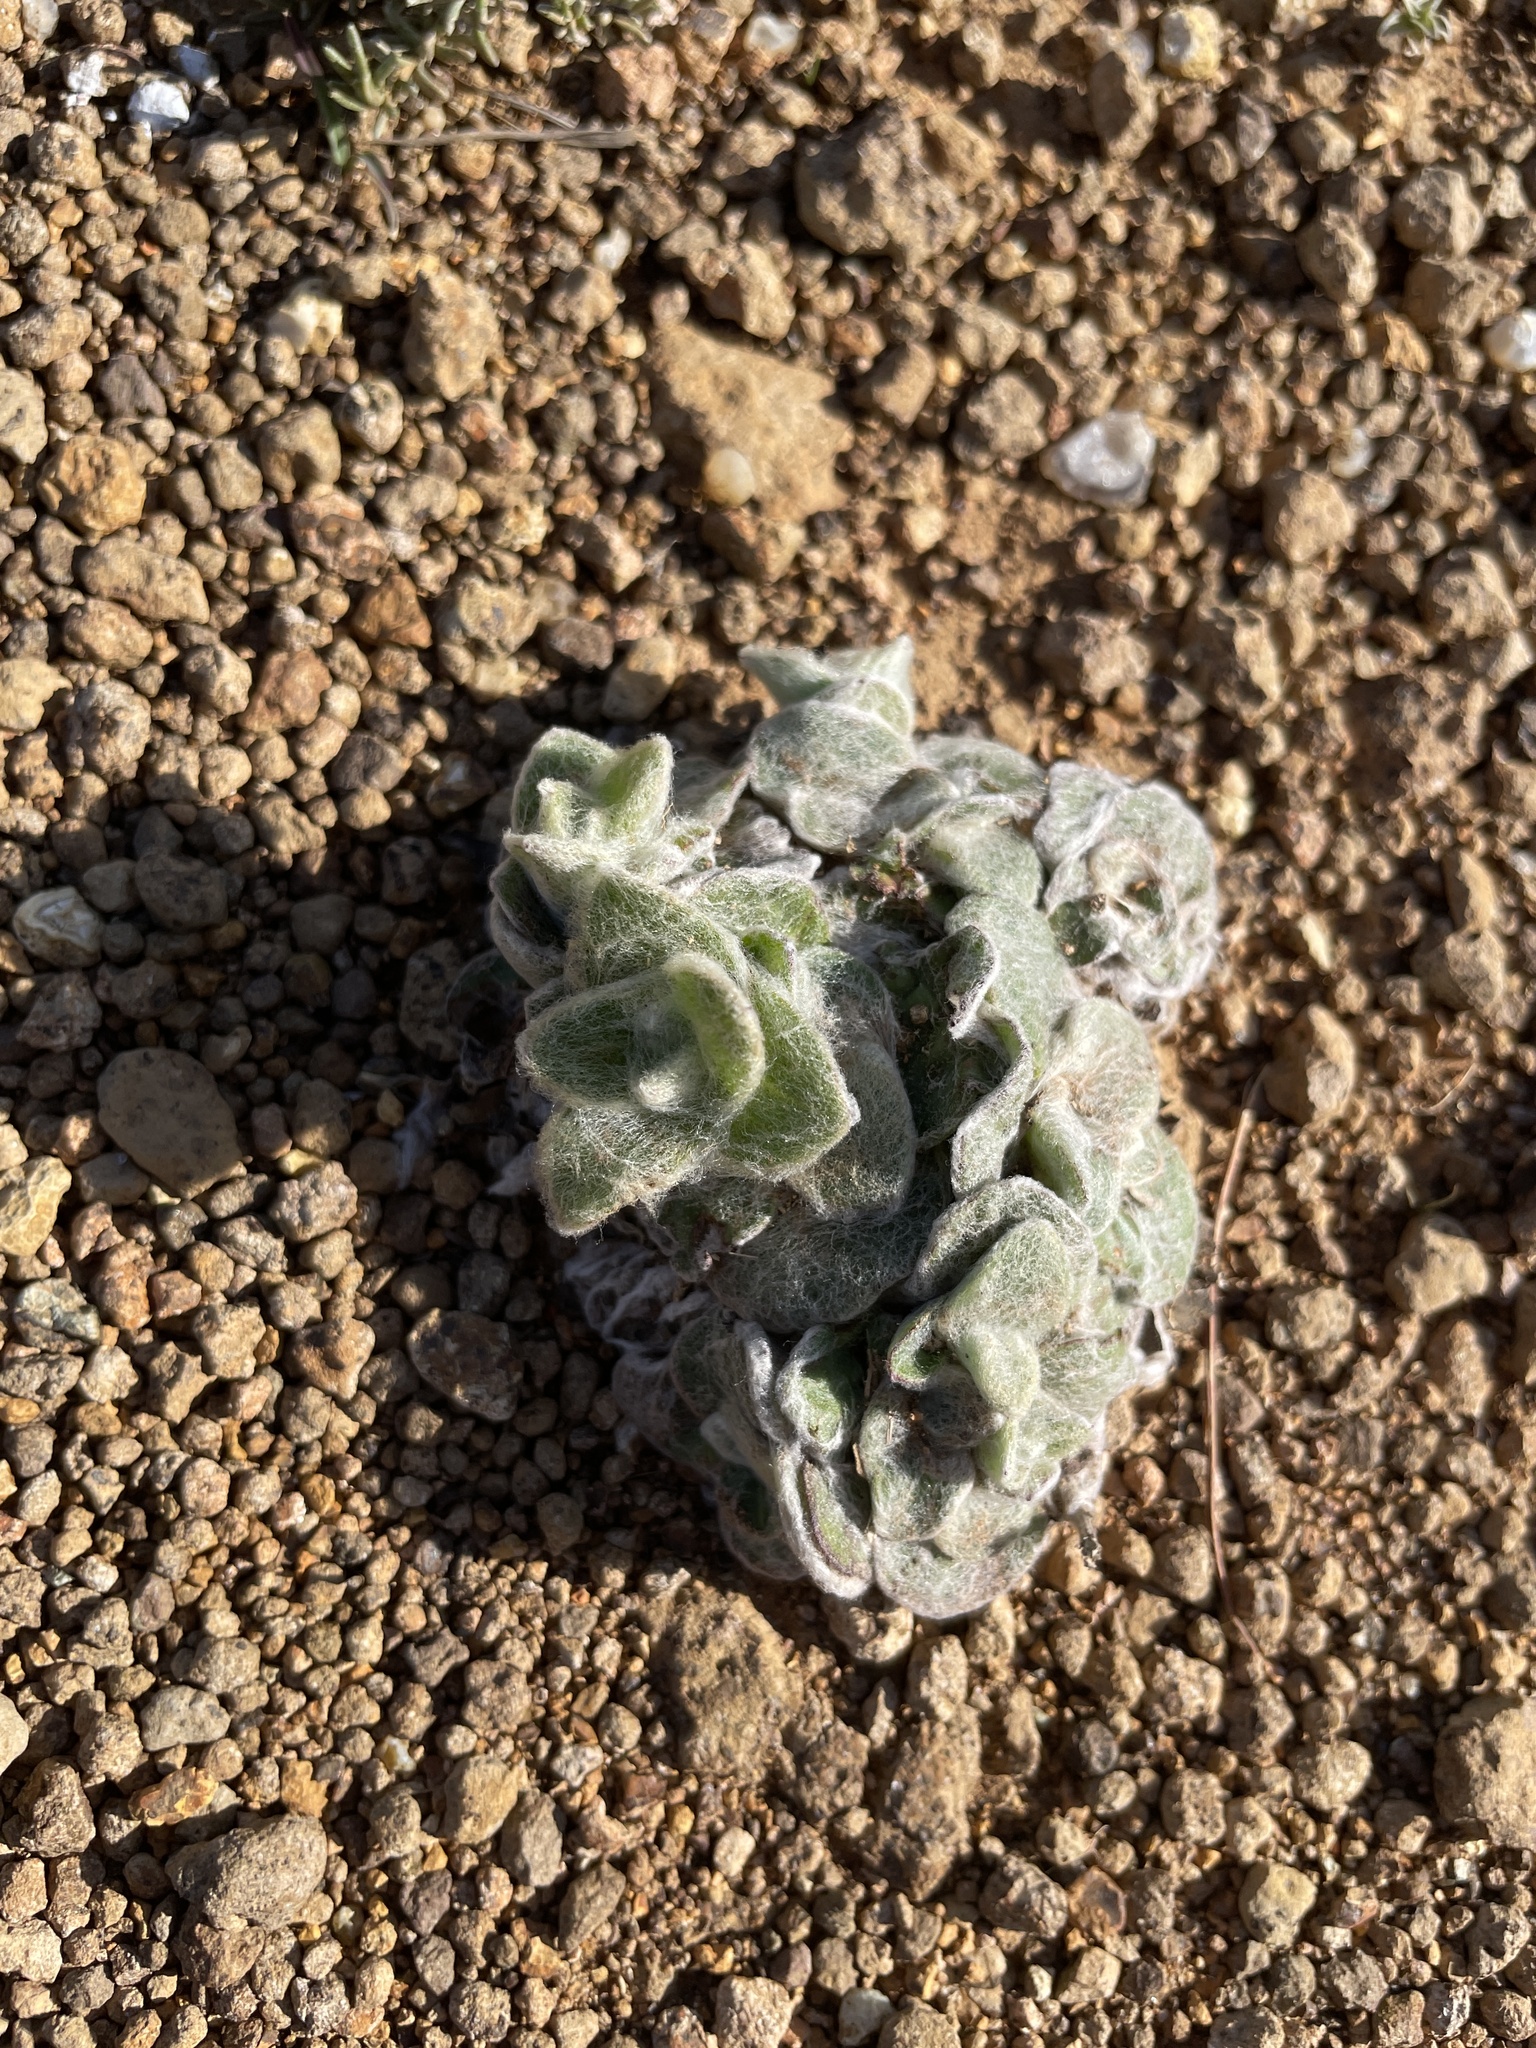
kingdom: Plantae
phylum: Tracheophyta
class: Magnoliopsida
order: Asterales
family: Asteraceae
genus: Helichrysum
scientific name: Helichrysum adenocarpum
